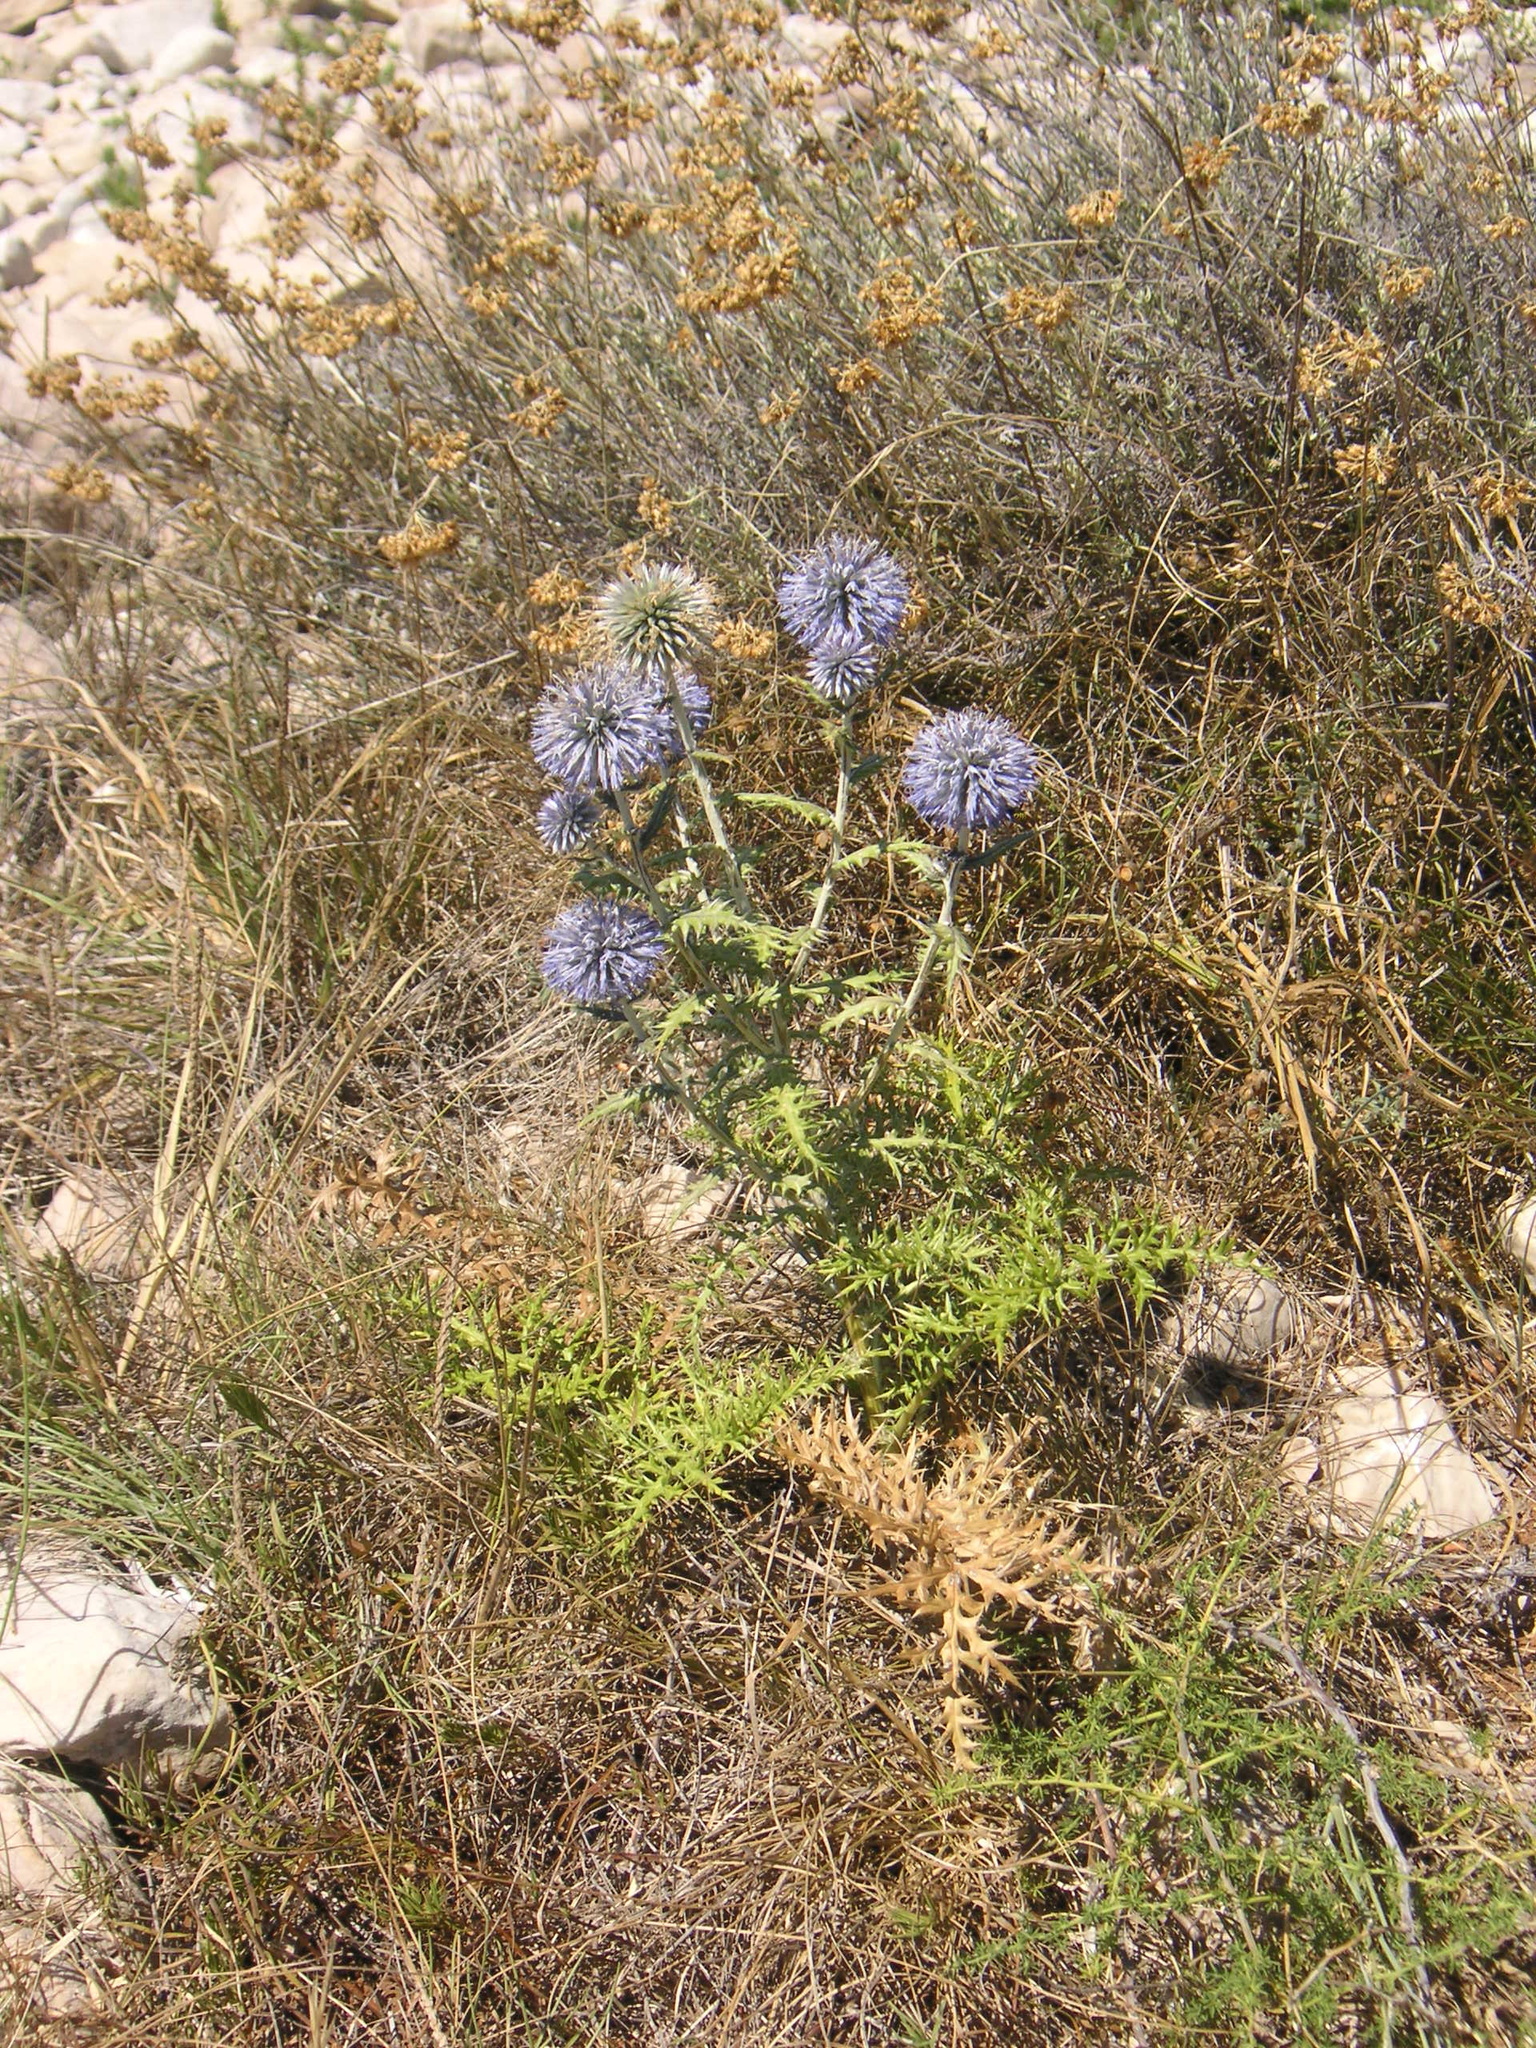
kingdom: Plantae
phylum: Tracheophyta
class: Magnoliopsida
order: Asterales
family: Asteraceae
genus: Echinops
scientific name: Echinops ritro
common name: Globe thistle
